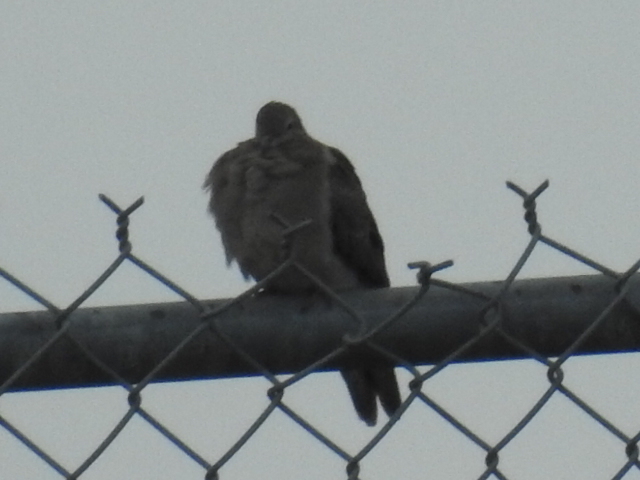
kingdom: Animalia
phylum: Chordata
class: Aves
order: Columbiformes
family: Columbidae
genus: Zenaida
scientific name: Zenaida macroura
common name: Mourning dove
